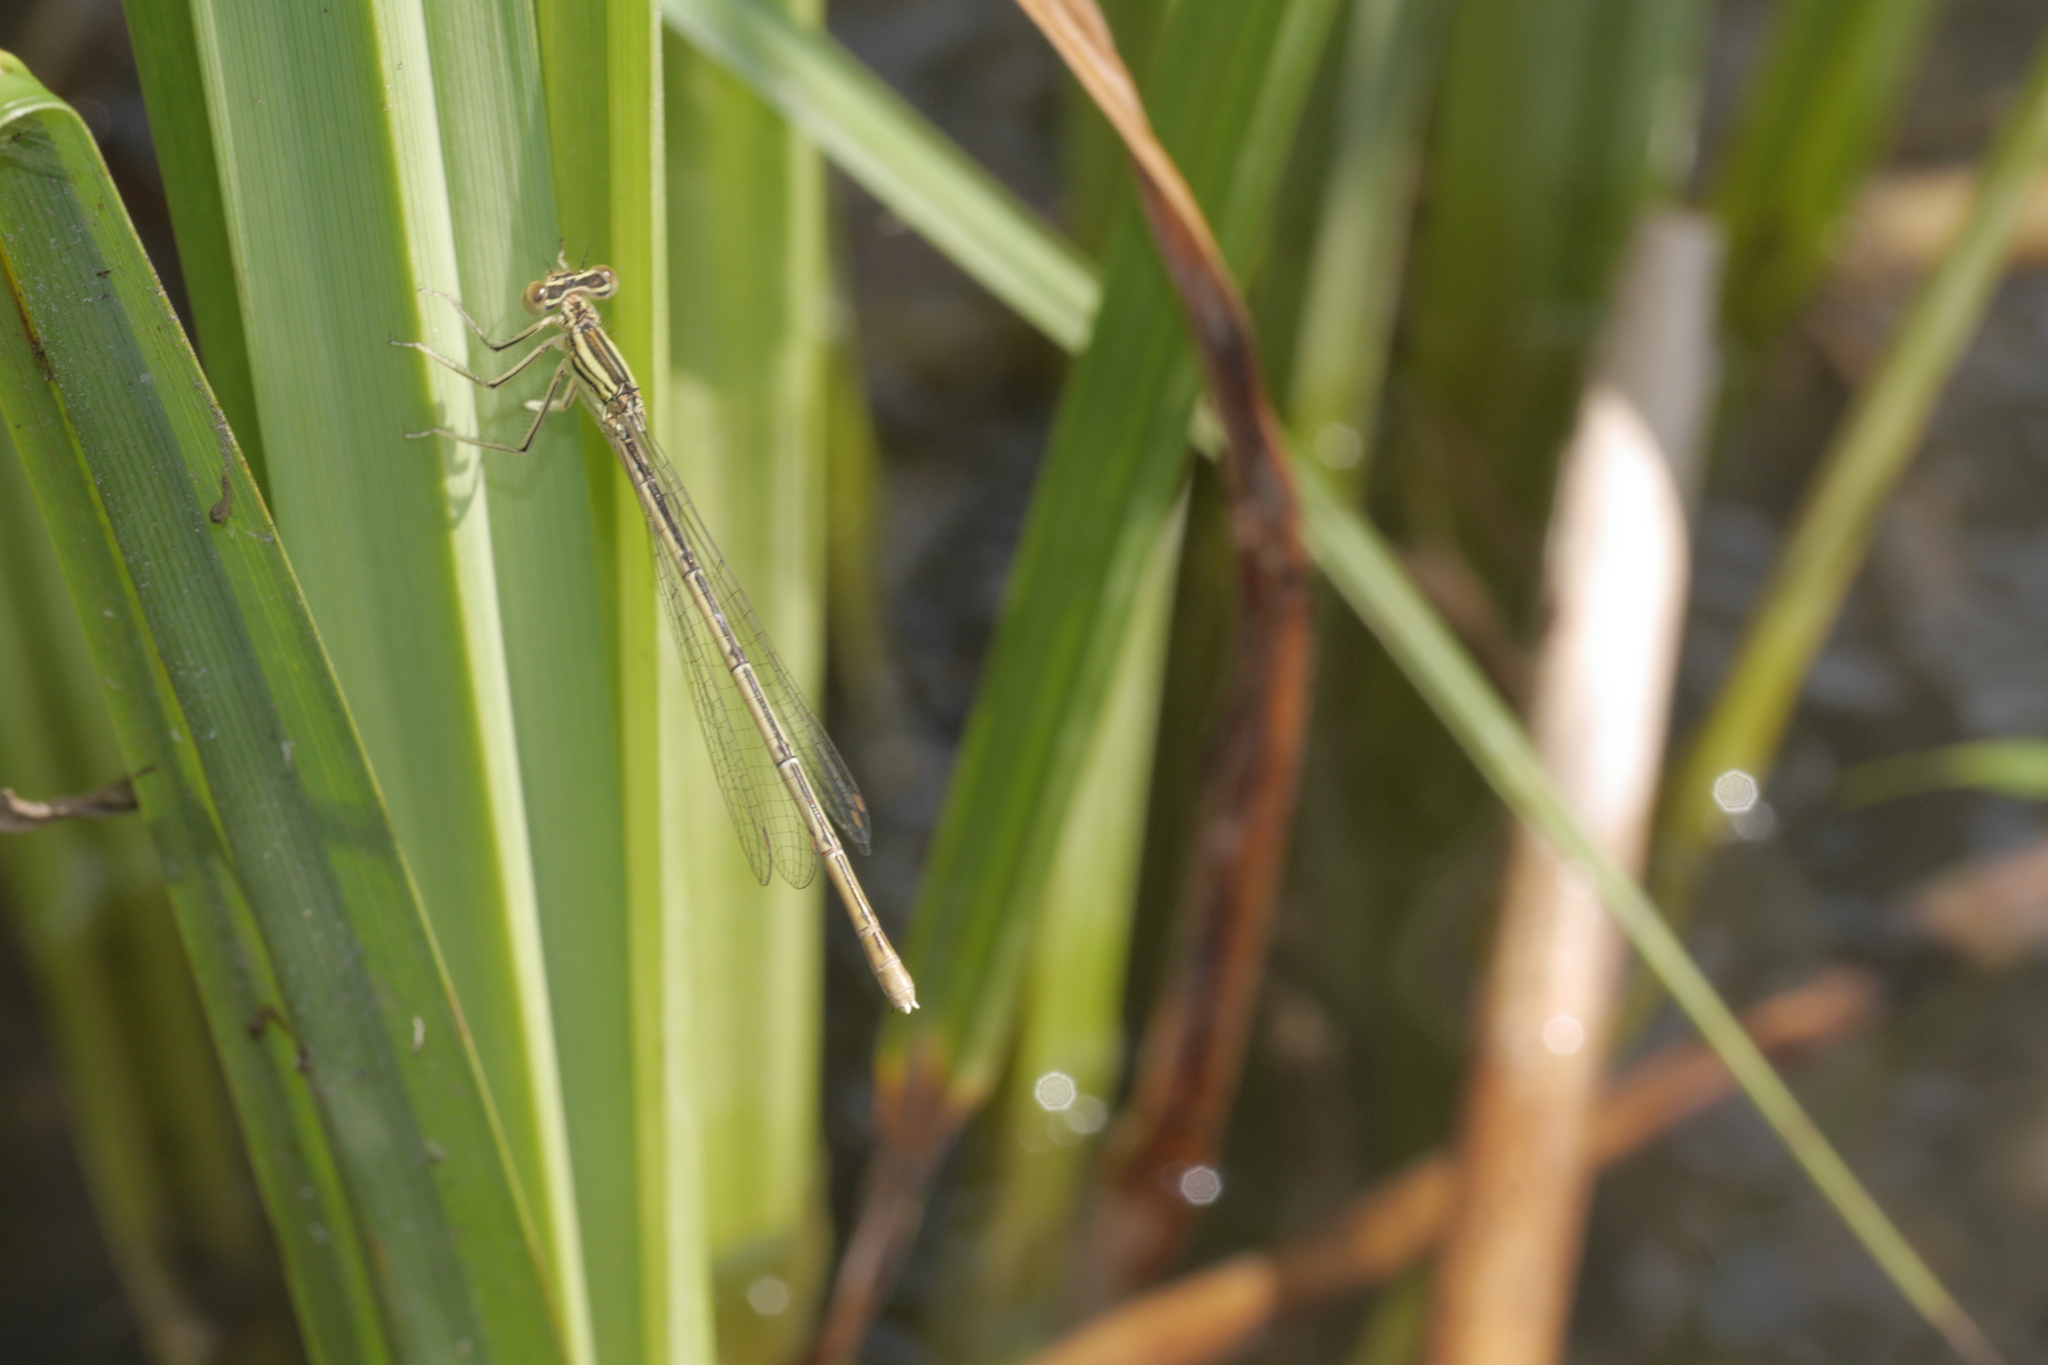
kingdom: Animalia
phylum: Arthropoda
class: Insecta
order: Odonata
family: Platycnemididae
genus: Platycnemis
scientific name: Platycnemis pennipes
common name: White-legged damselfly
